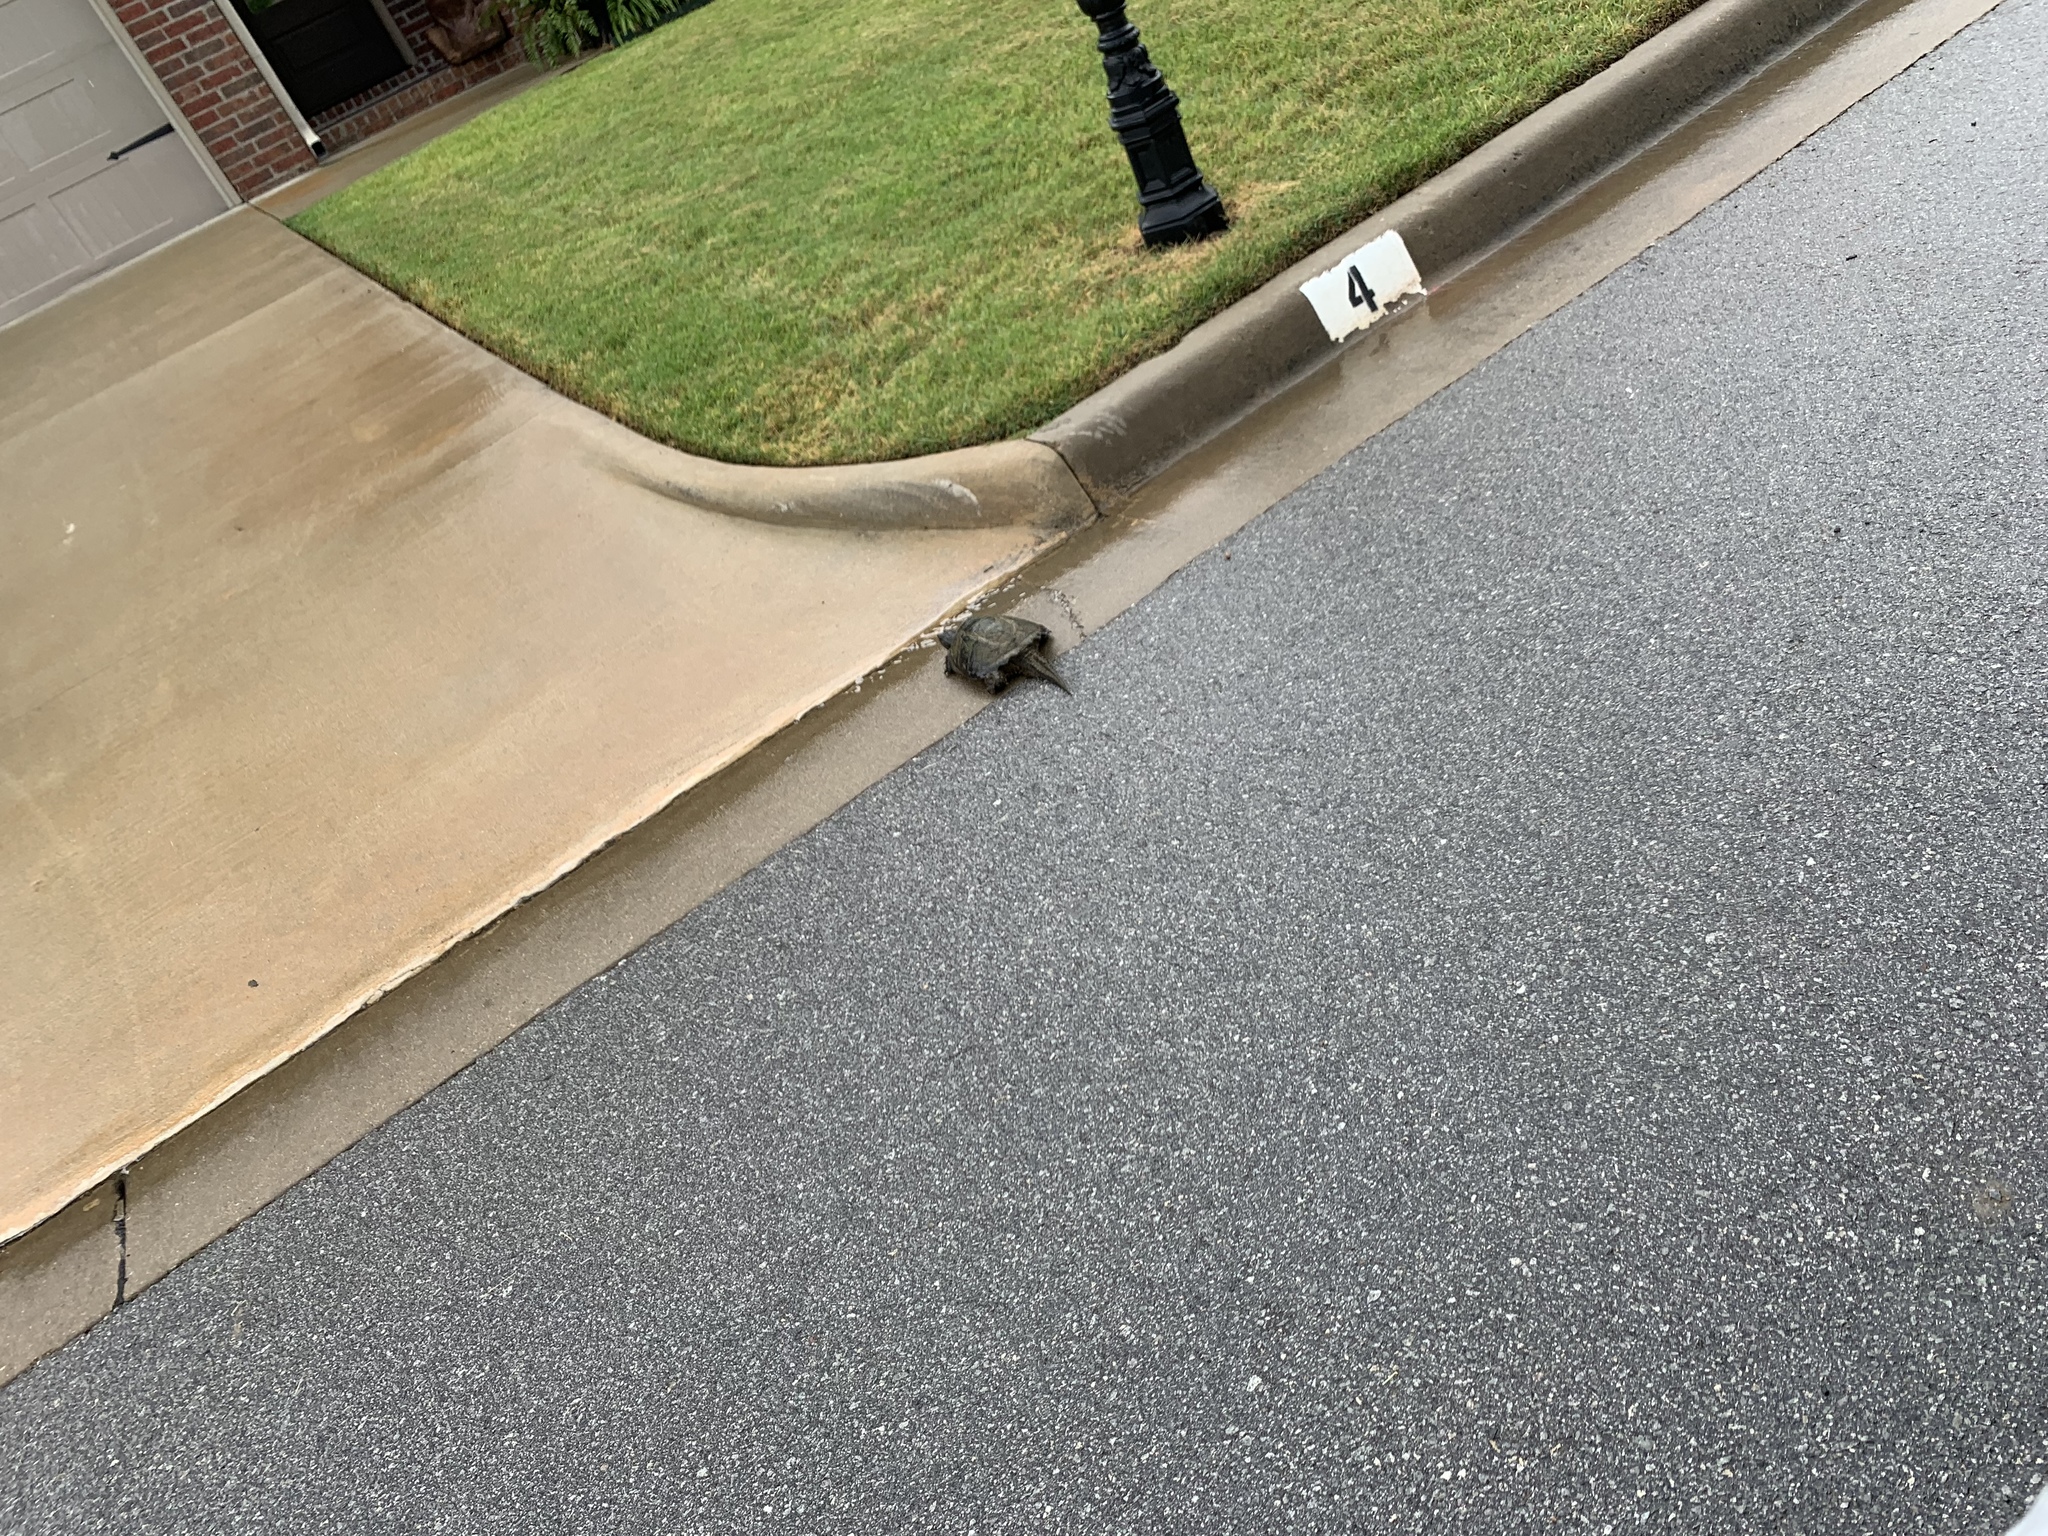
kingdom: Animalia
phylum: Chordata
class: Testudines
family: Chelydridae
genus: Chelydra
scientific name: Chelydra serpentina
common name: Common snapping turtle
